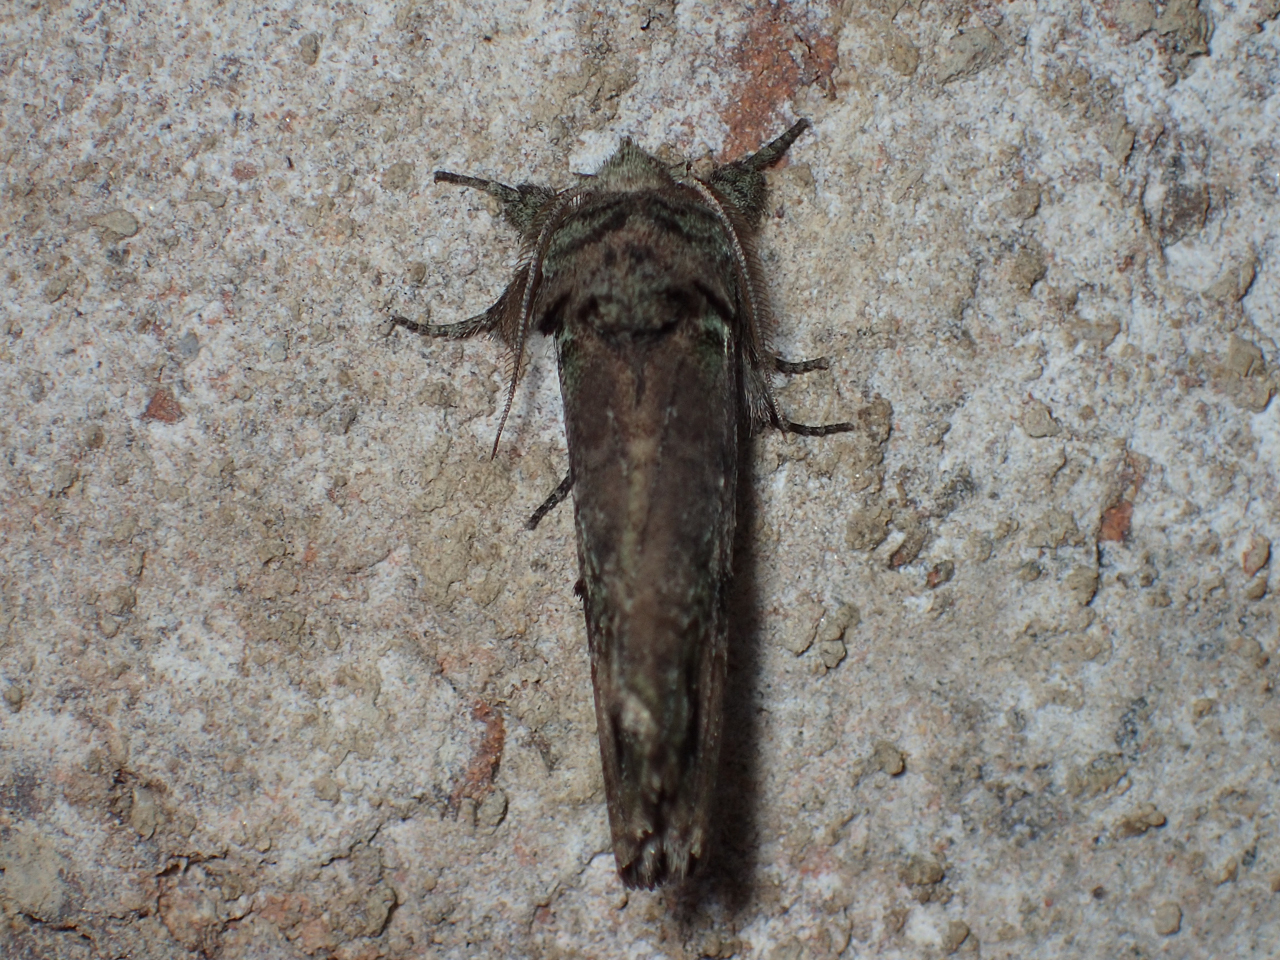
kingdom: Animalia
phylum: Arthropoda
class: Insecta
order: Lepidoptera
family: Notodontidae
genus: Schizura
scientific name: Schizura
